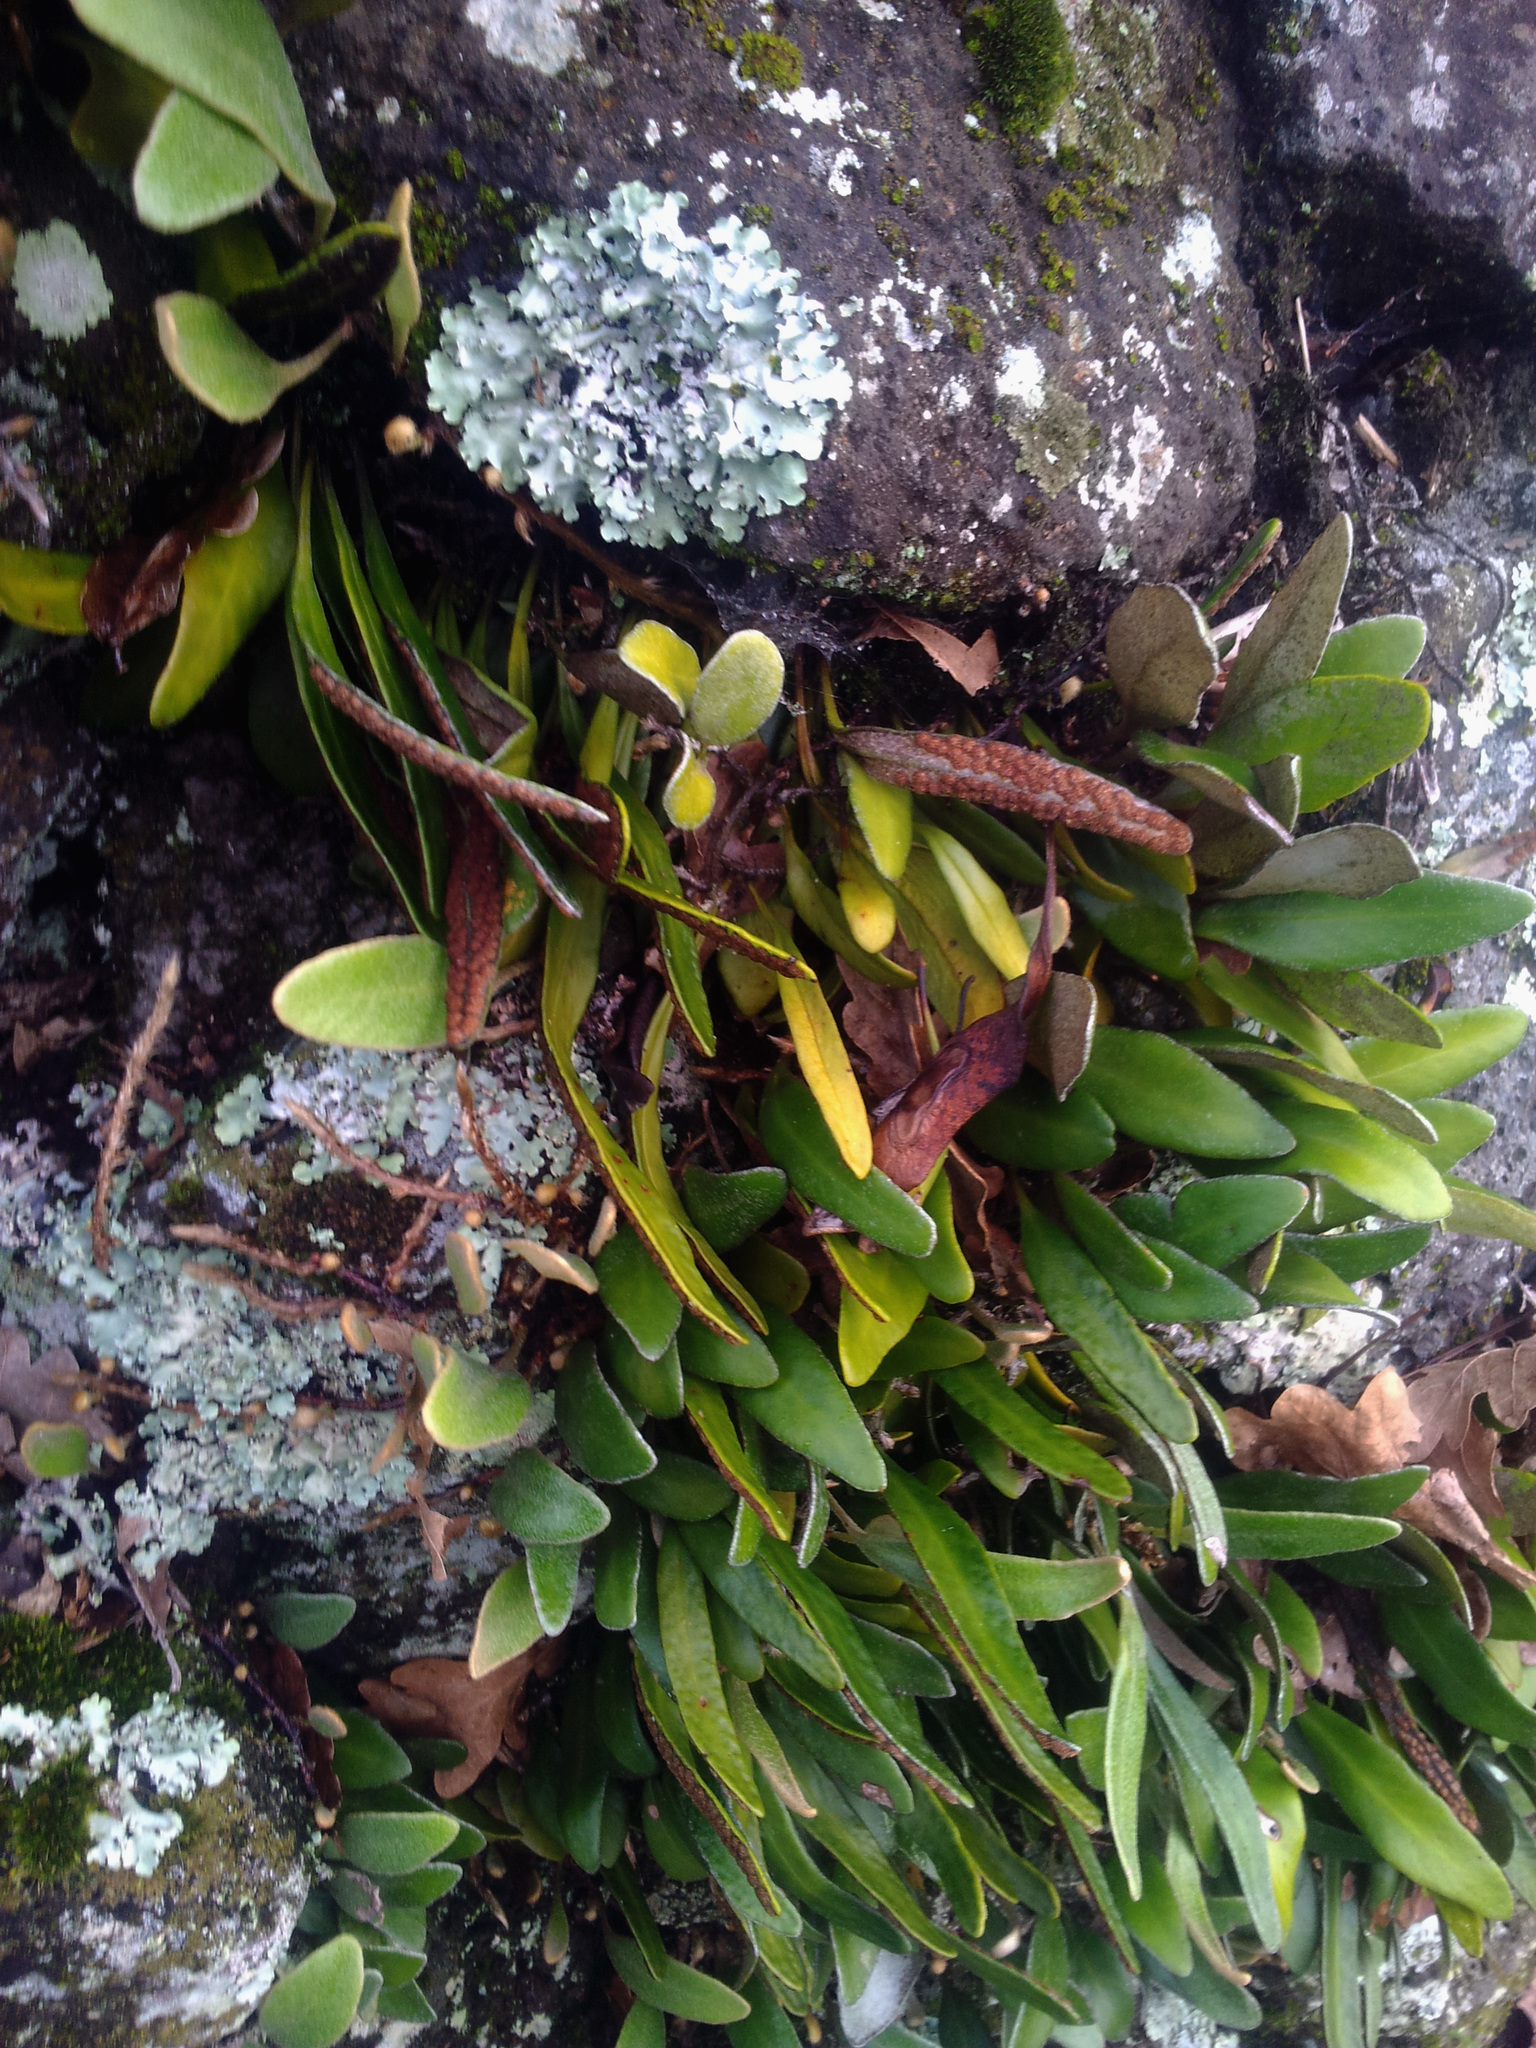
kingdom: Plantae
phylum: Tracheophyta
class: Polypodiopsida
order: Polypodiales
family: Polypodiaceae
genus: Pyrrosia
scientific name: Pyrrosia eleagnifolia
